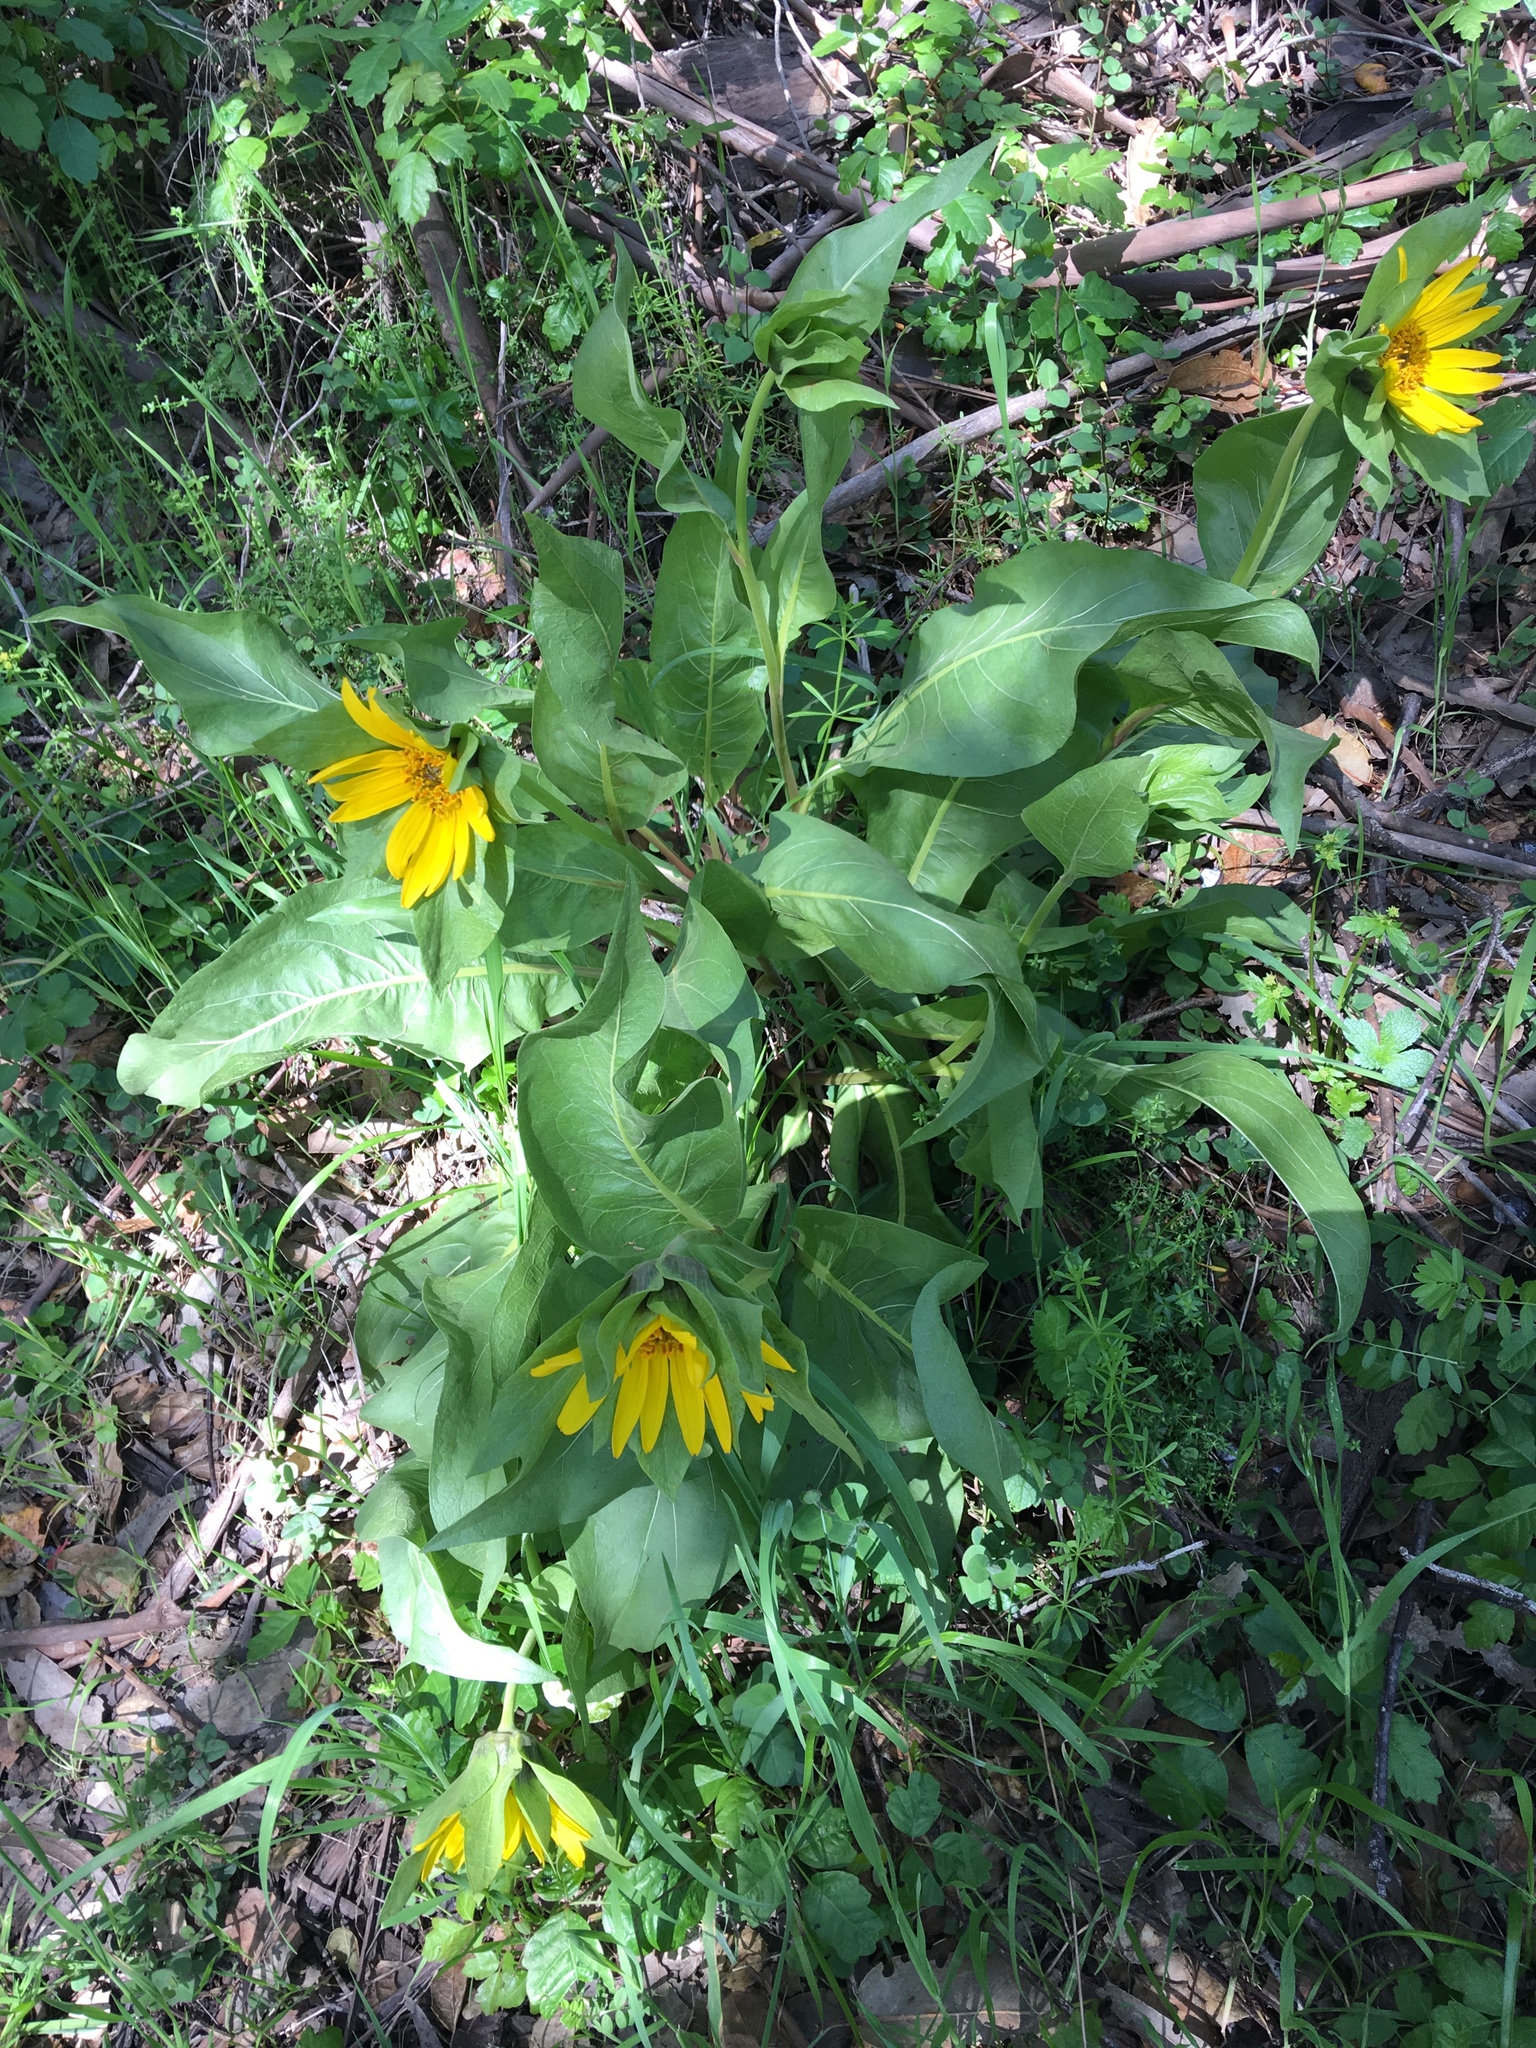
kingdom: Plantae
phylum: Tracheophyta
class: Magnoliopsida
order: Asterales
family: Asteraceae
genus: Wyethia
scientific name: Wyethia glabra
